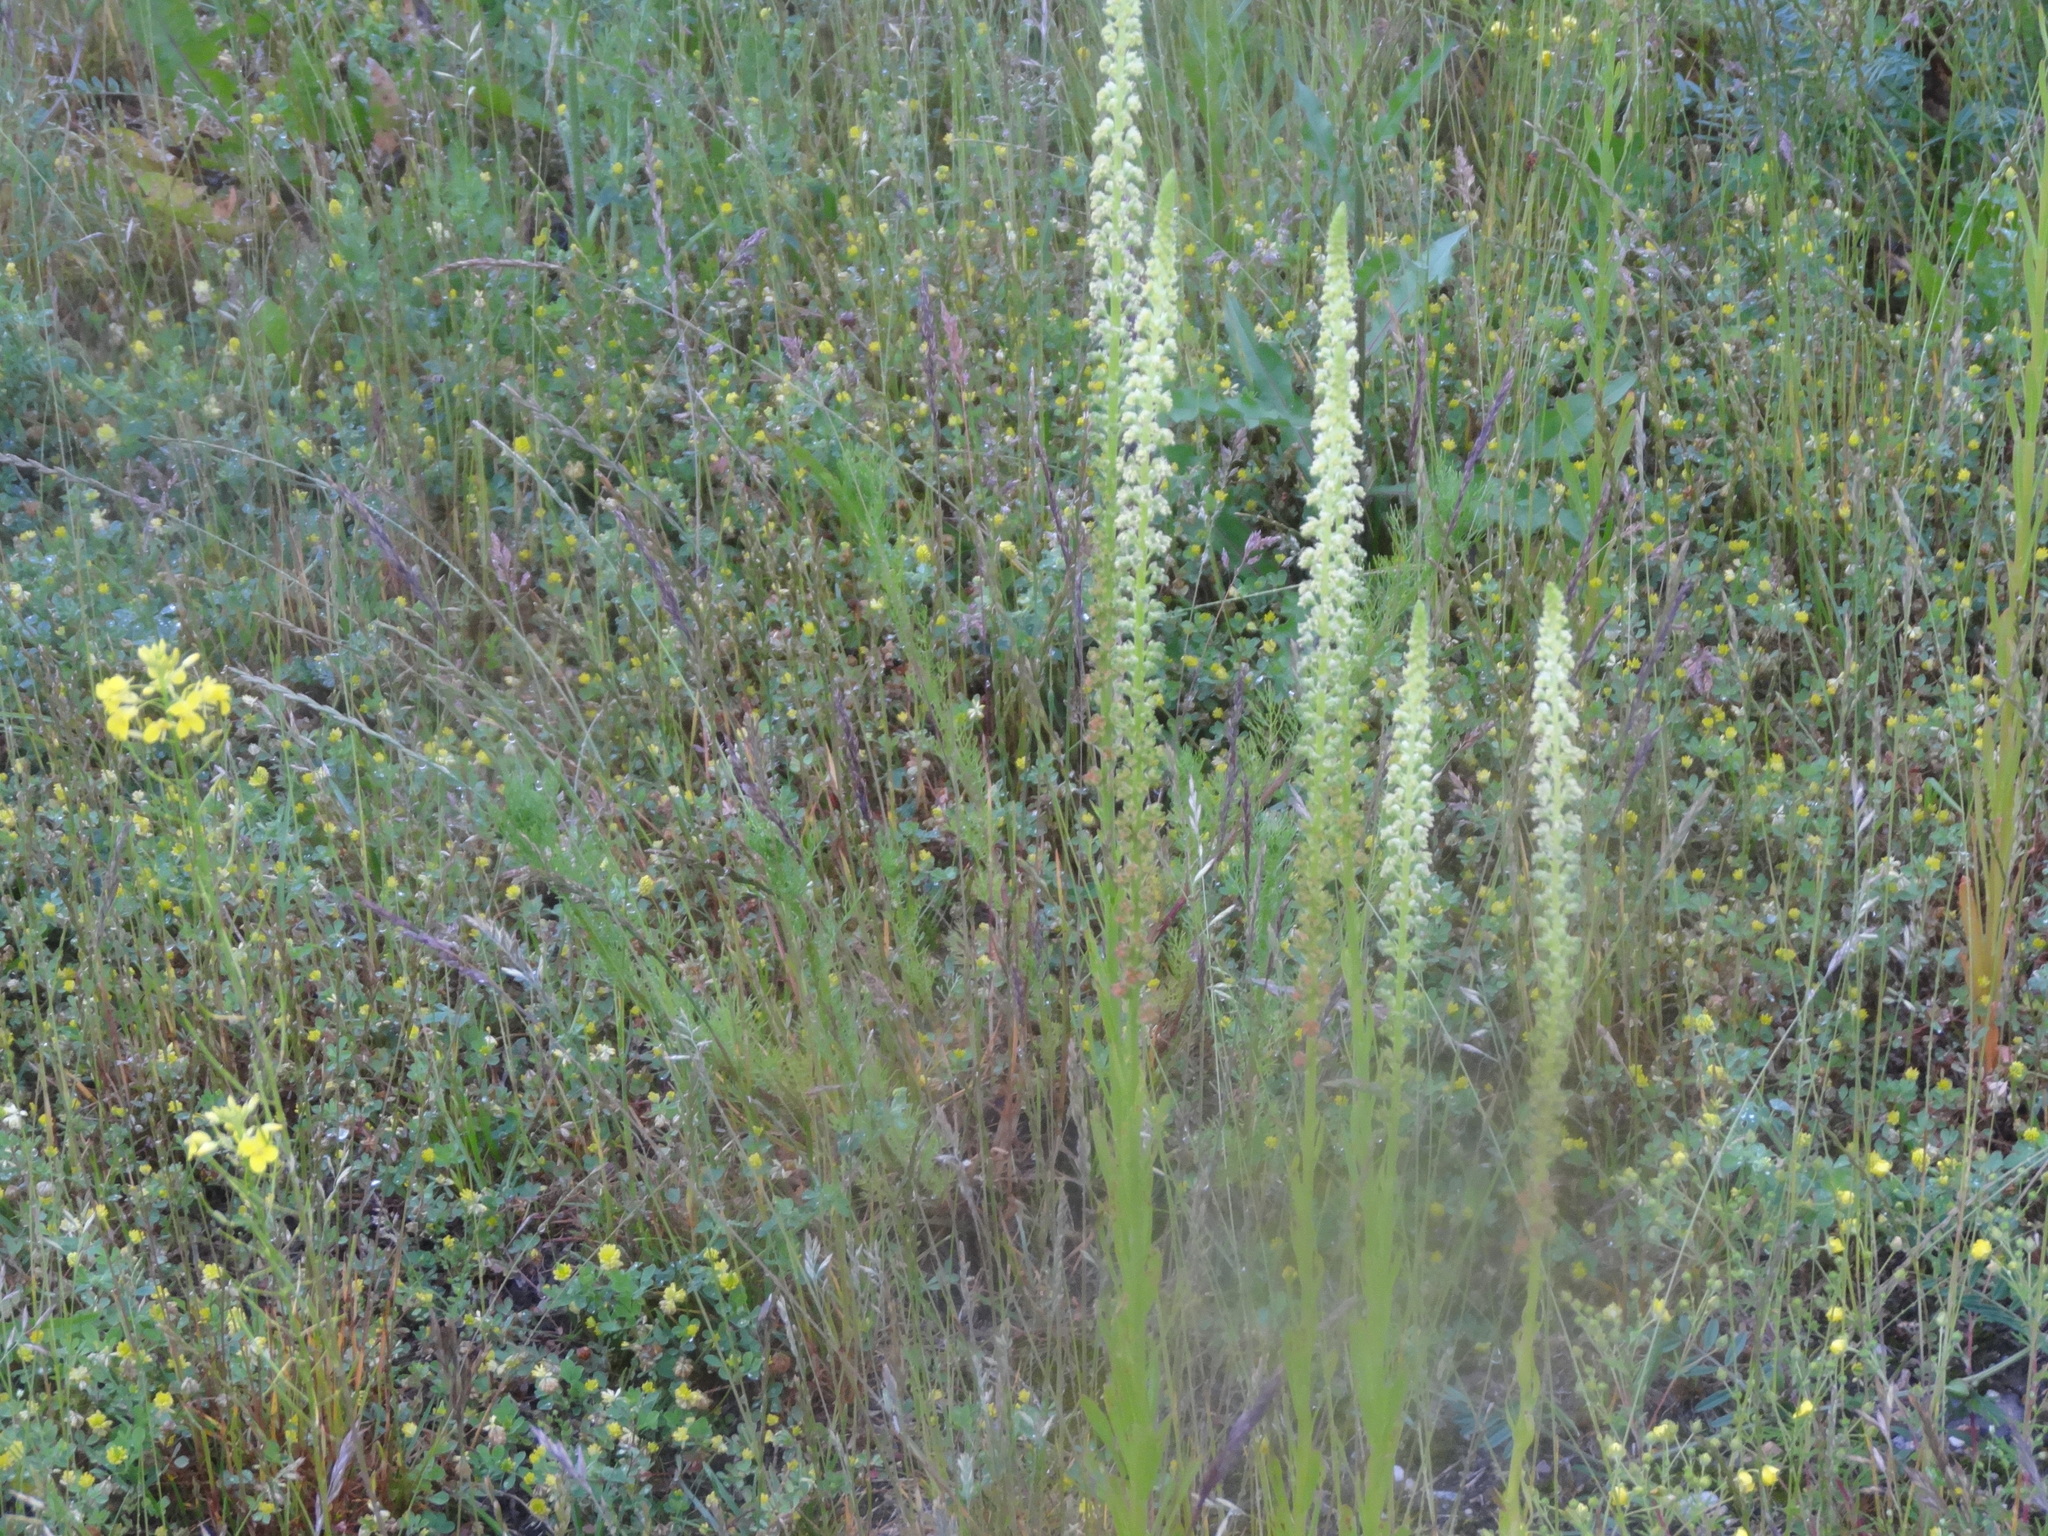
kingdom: Plantae
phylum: Tracheophyta
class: Magnoliopsida
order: Brassicales
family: Resedaceae
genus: Reseda
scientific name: Reseda luteola
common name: Weld
